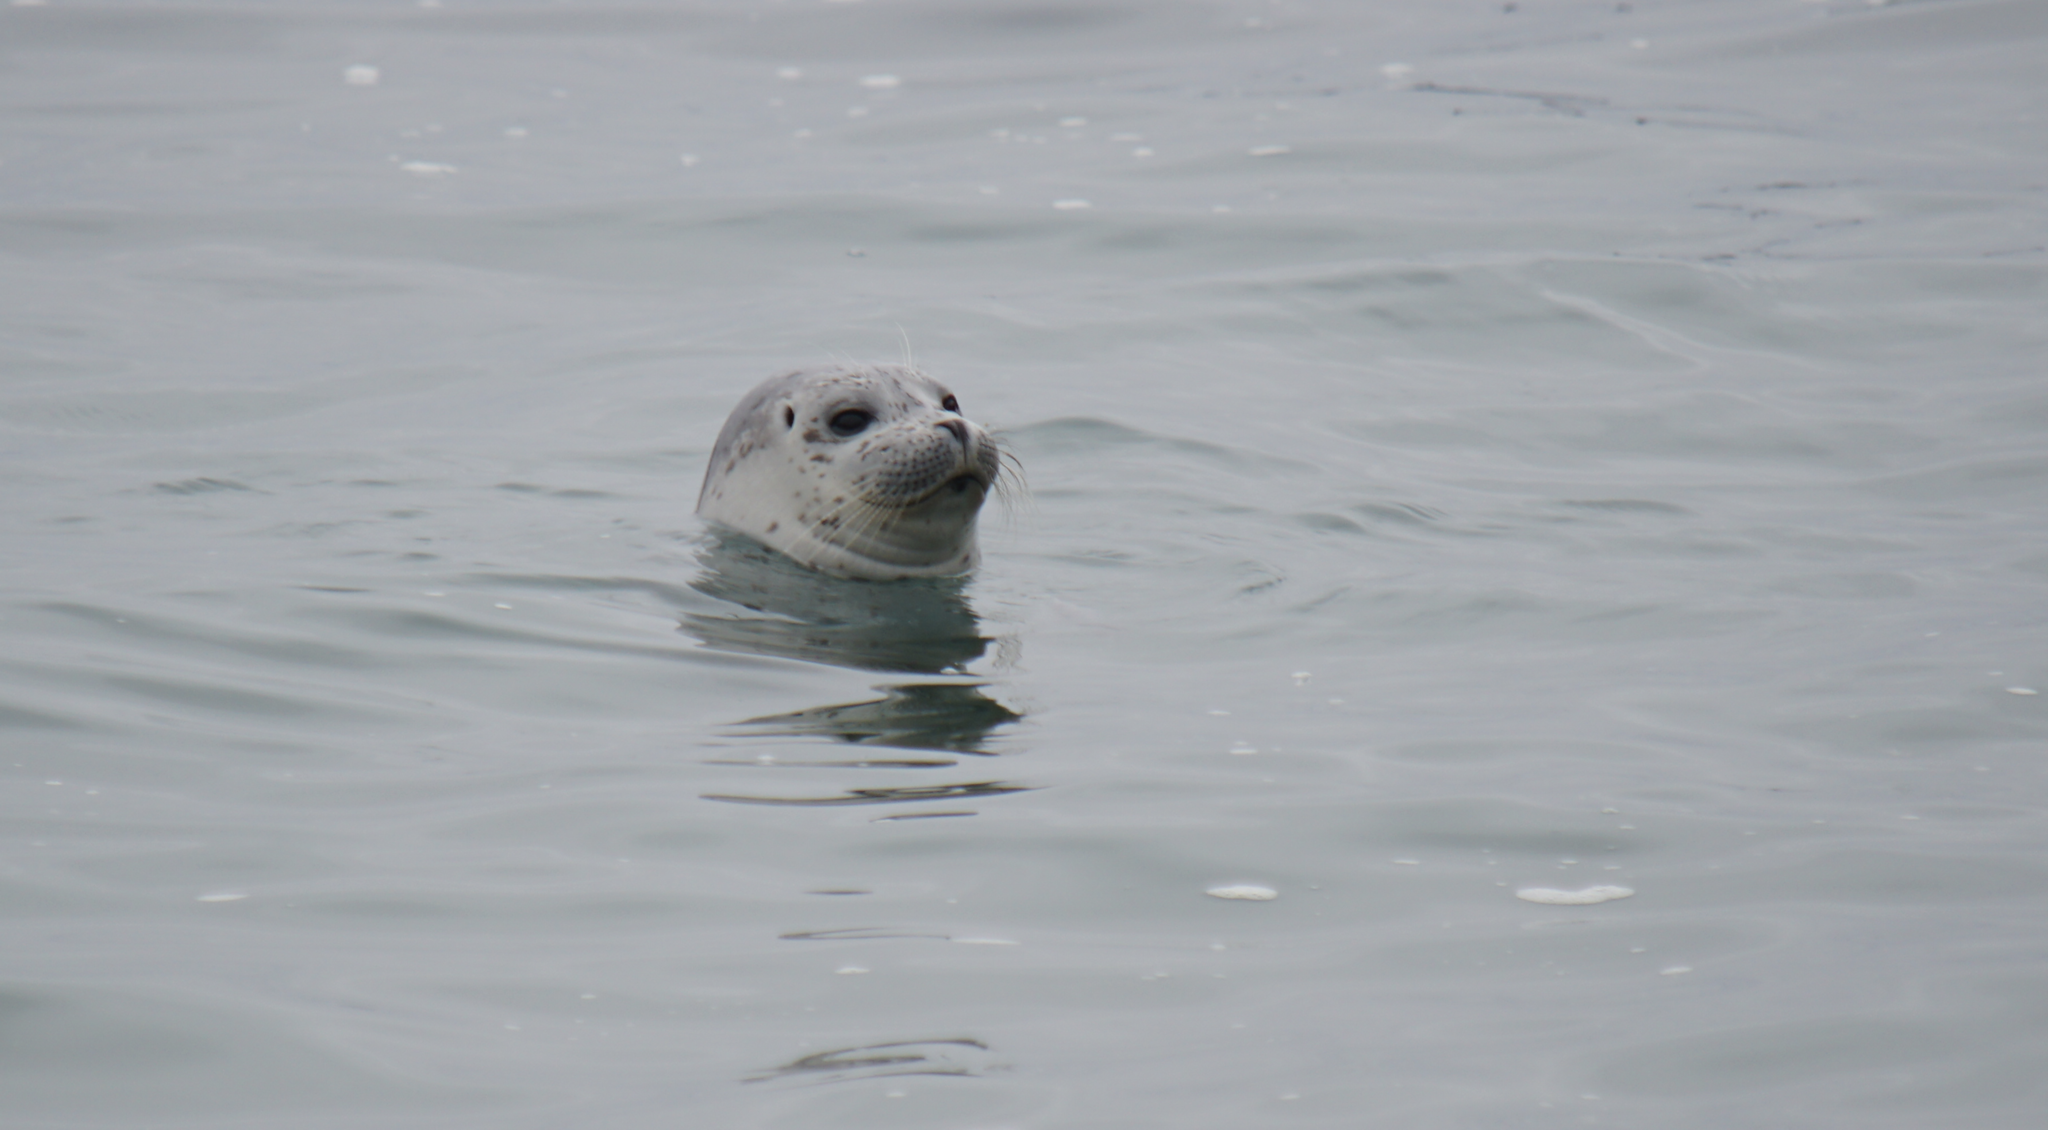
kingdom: Animalia
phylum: Chordata
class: Mammalia
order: Carnivora
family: Phocidae
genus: Phoca
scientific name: Phoca vitulina
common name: Harbor seal
